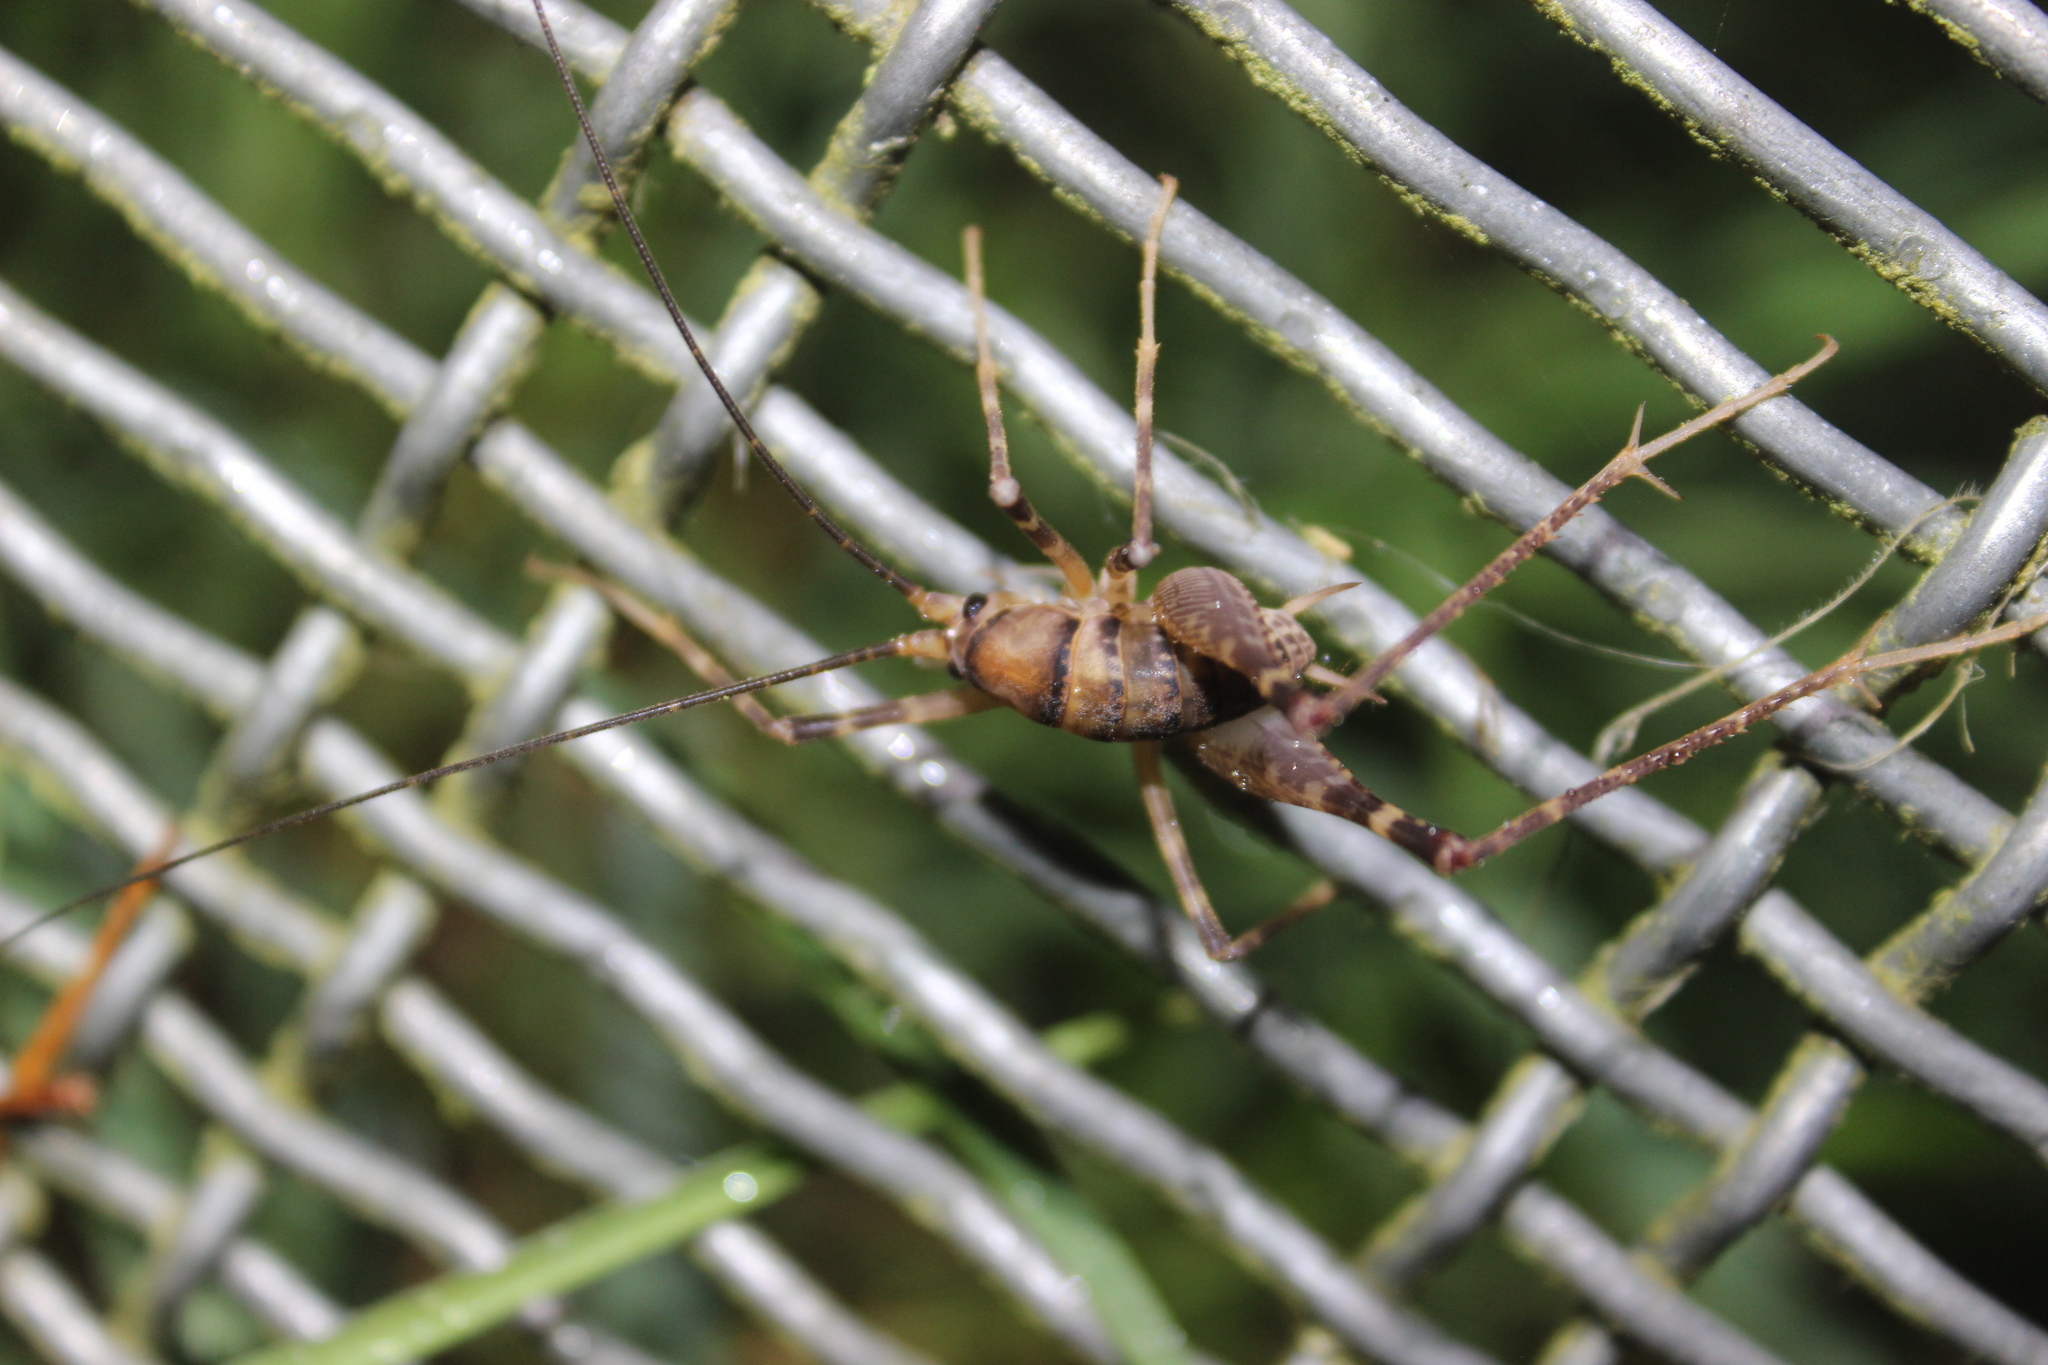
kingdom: Animalia
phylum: Arthropoda
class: Insecta
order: Orthoptera
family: Rhaphidophoridae
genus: Pachyrhamma
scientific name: Pachyrhamma edwardsii
